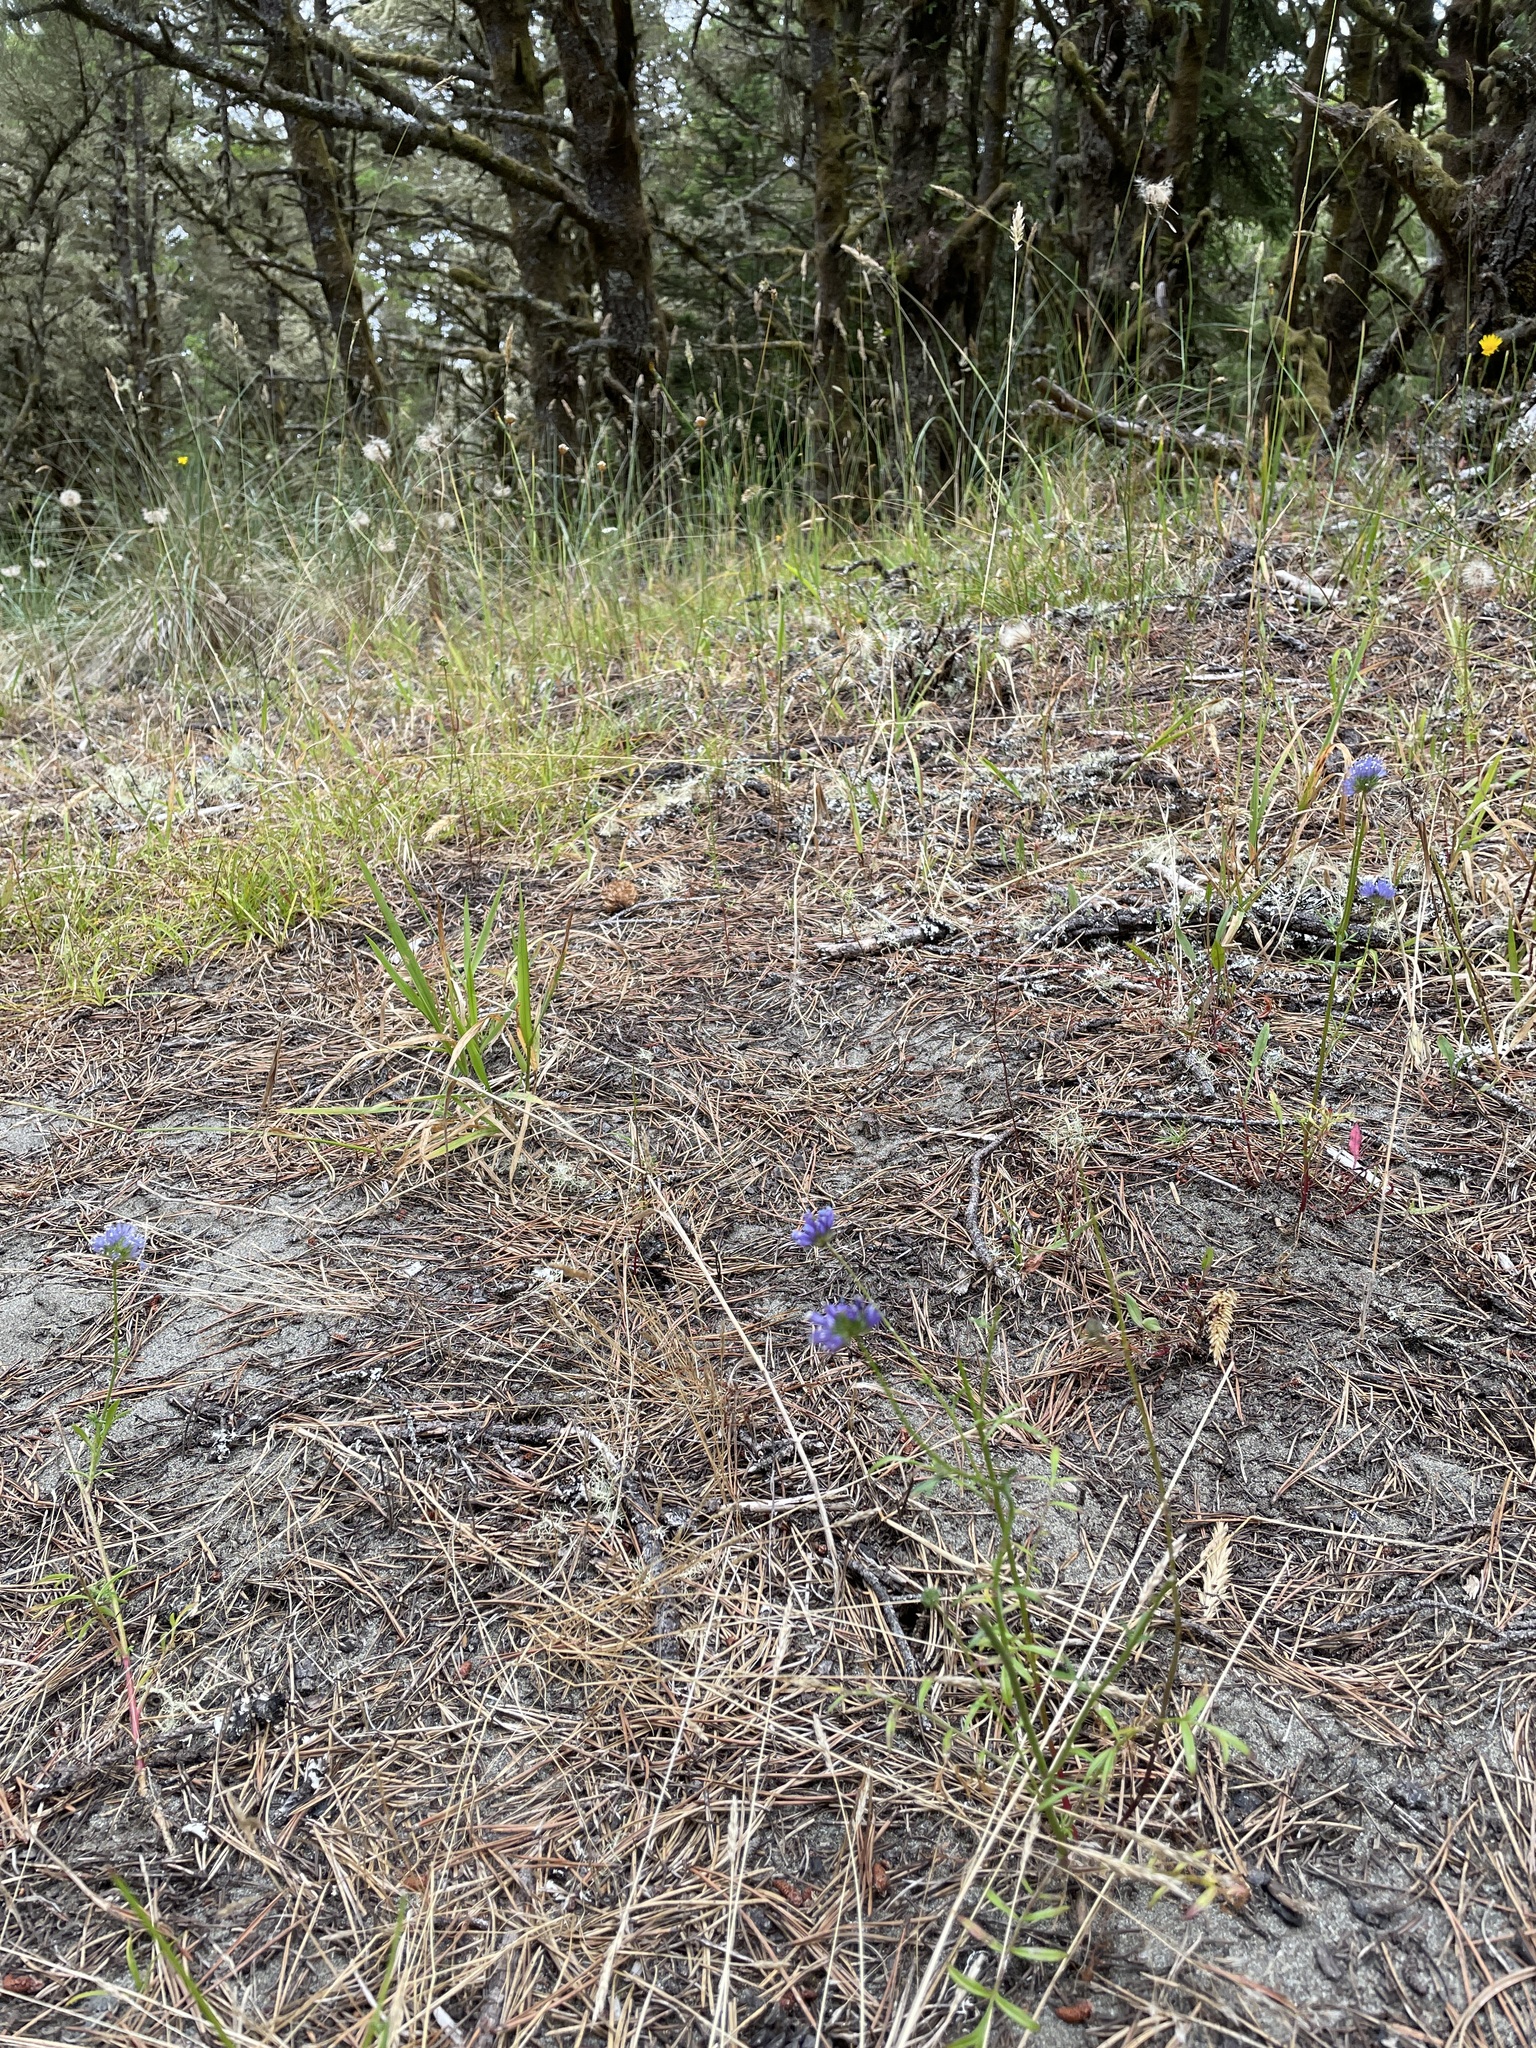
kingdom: Plantae
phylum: Tracheophyta
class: Magnoliopsida
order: Ericales
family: Polemoniaceae
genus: Gilia
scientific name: Gilia capitata
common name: Bluehead gilia
